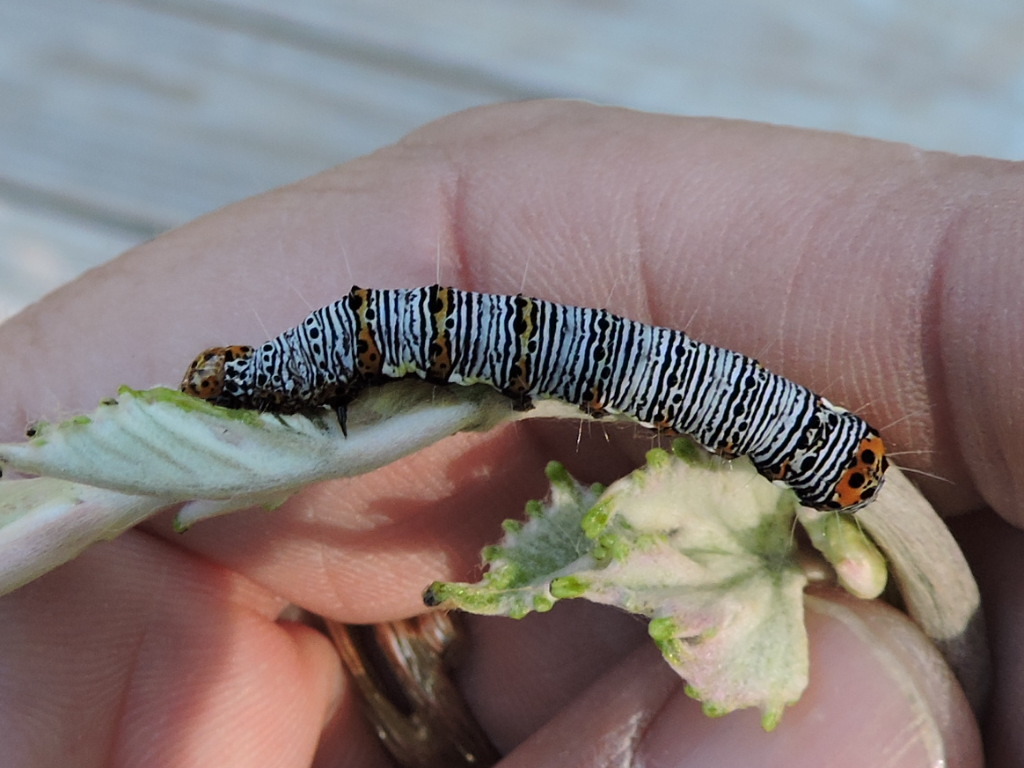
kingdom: Animalia
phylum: Arthropoda
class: Insecta
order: Lepidoptera
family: Noctuidae
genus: Alypia
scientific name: Alypia octomaculata
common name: Eight-spotted forester
